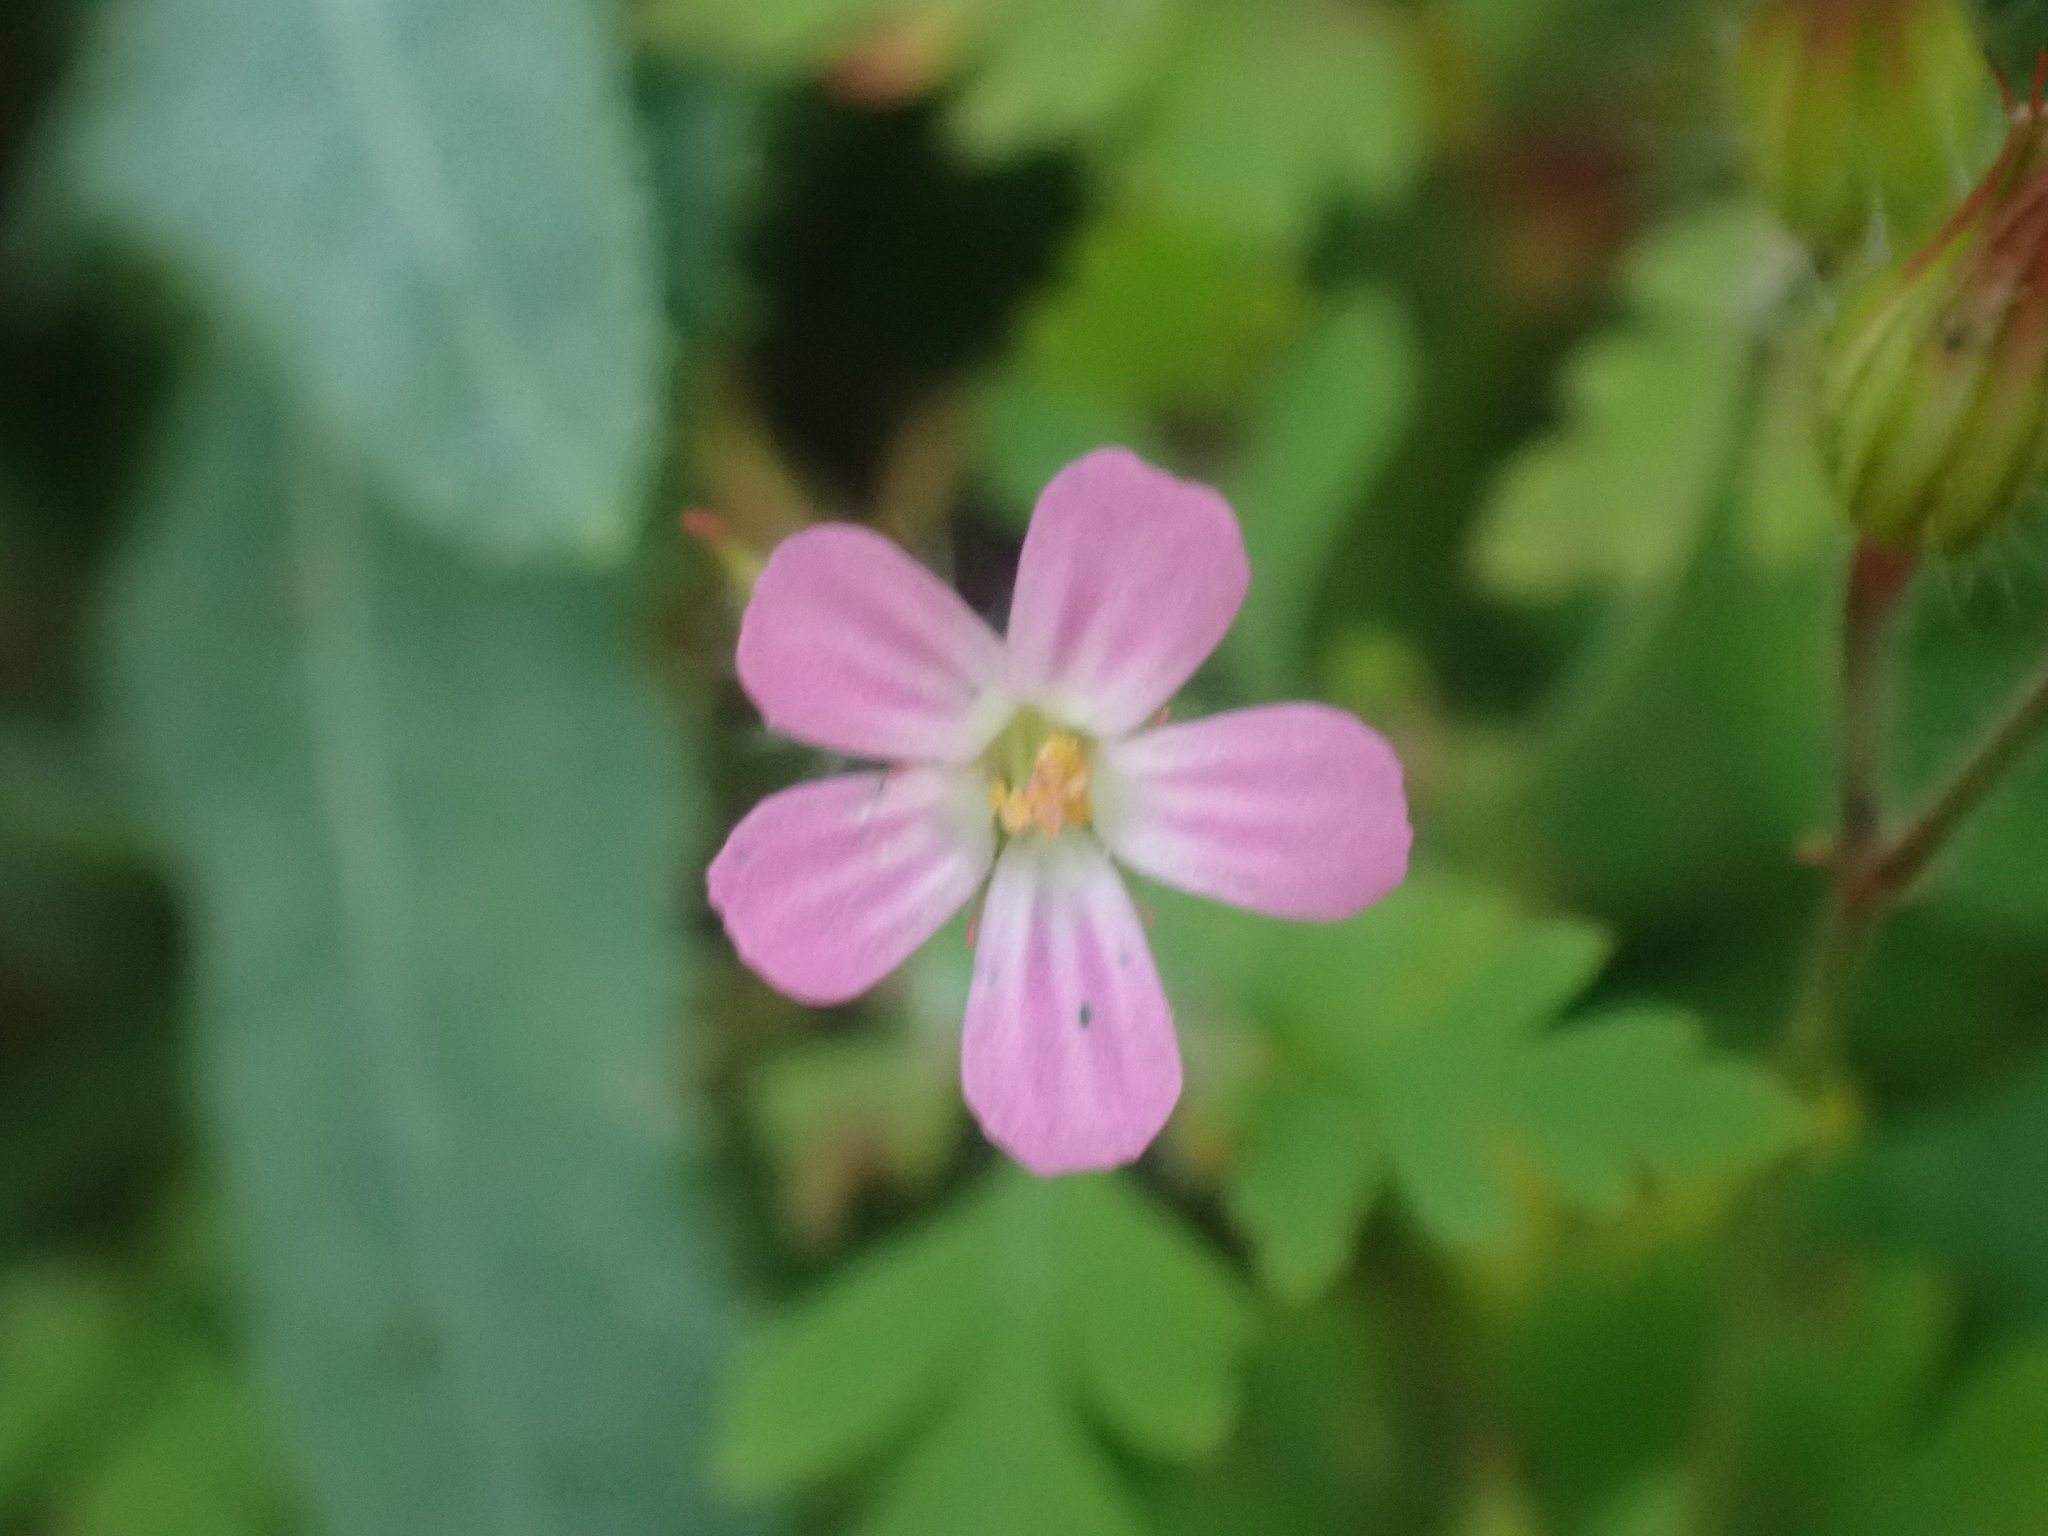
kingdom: Plantae
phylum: Tracheophyta
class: Magnoliopsida
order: Geraniales
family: Geraniaceae
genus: Geranium
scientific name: Geranium robertianum
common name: Herb-robert
